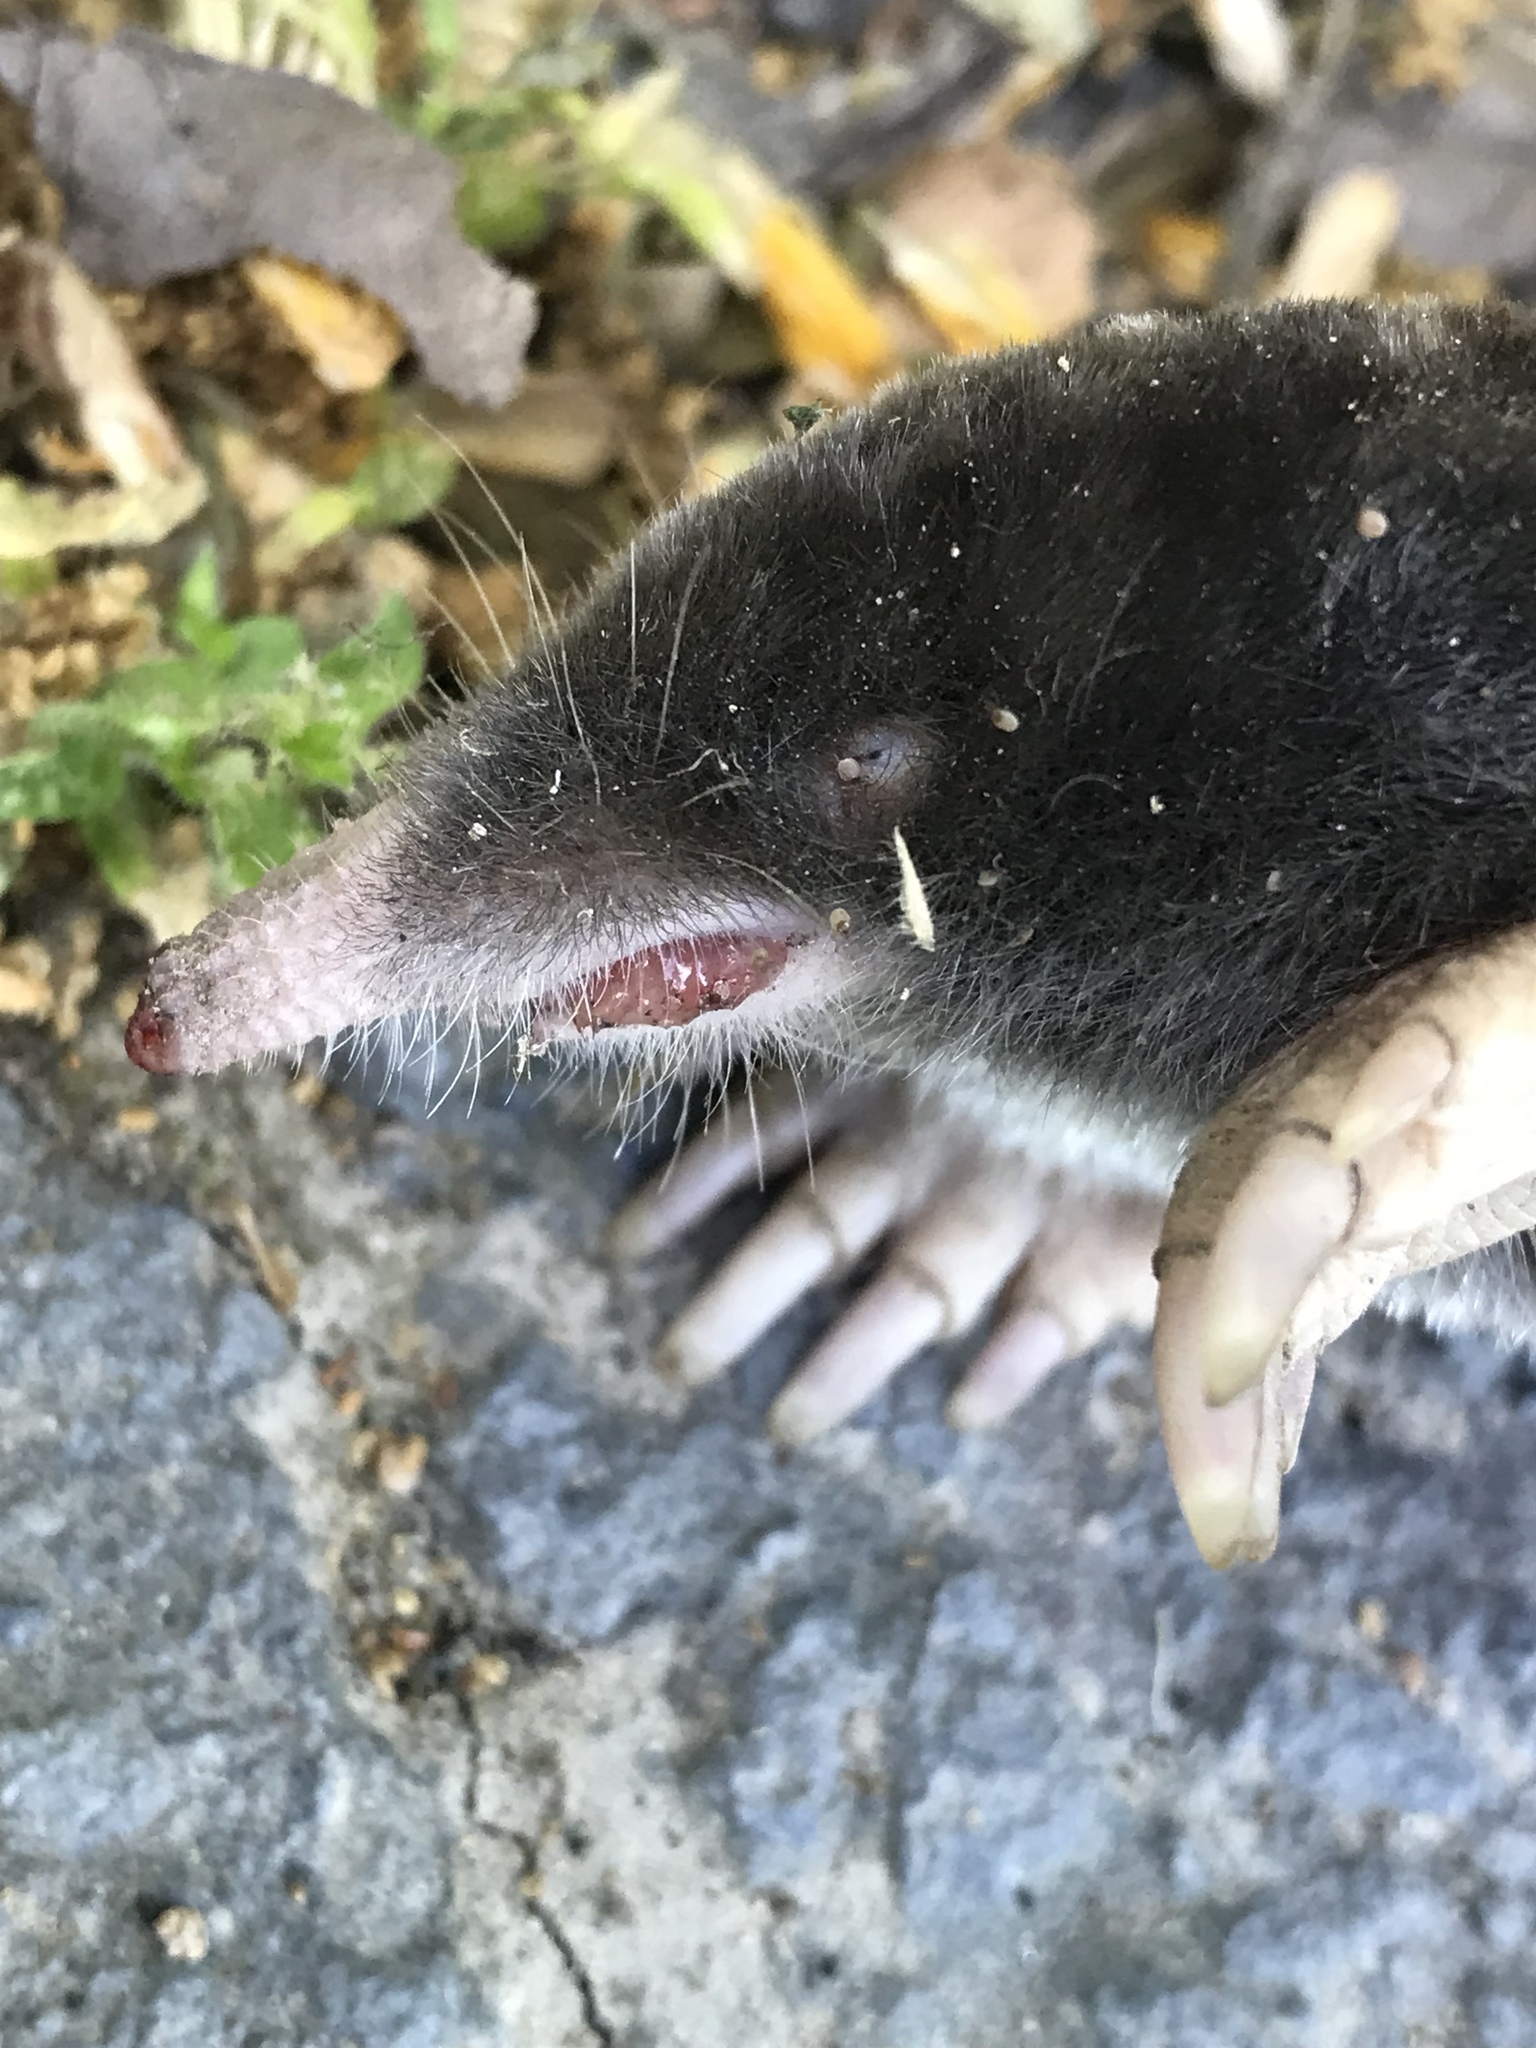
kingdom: Animalia
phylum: Chordata
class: Mammalia
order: Soricomorpha
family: Talpidae
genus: Scapanus
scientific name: Scapanus latimanus
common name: Broad-footed mole
